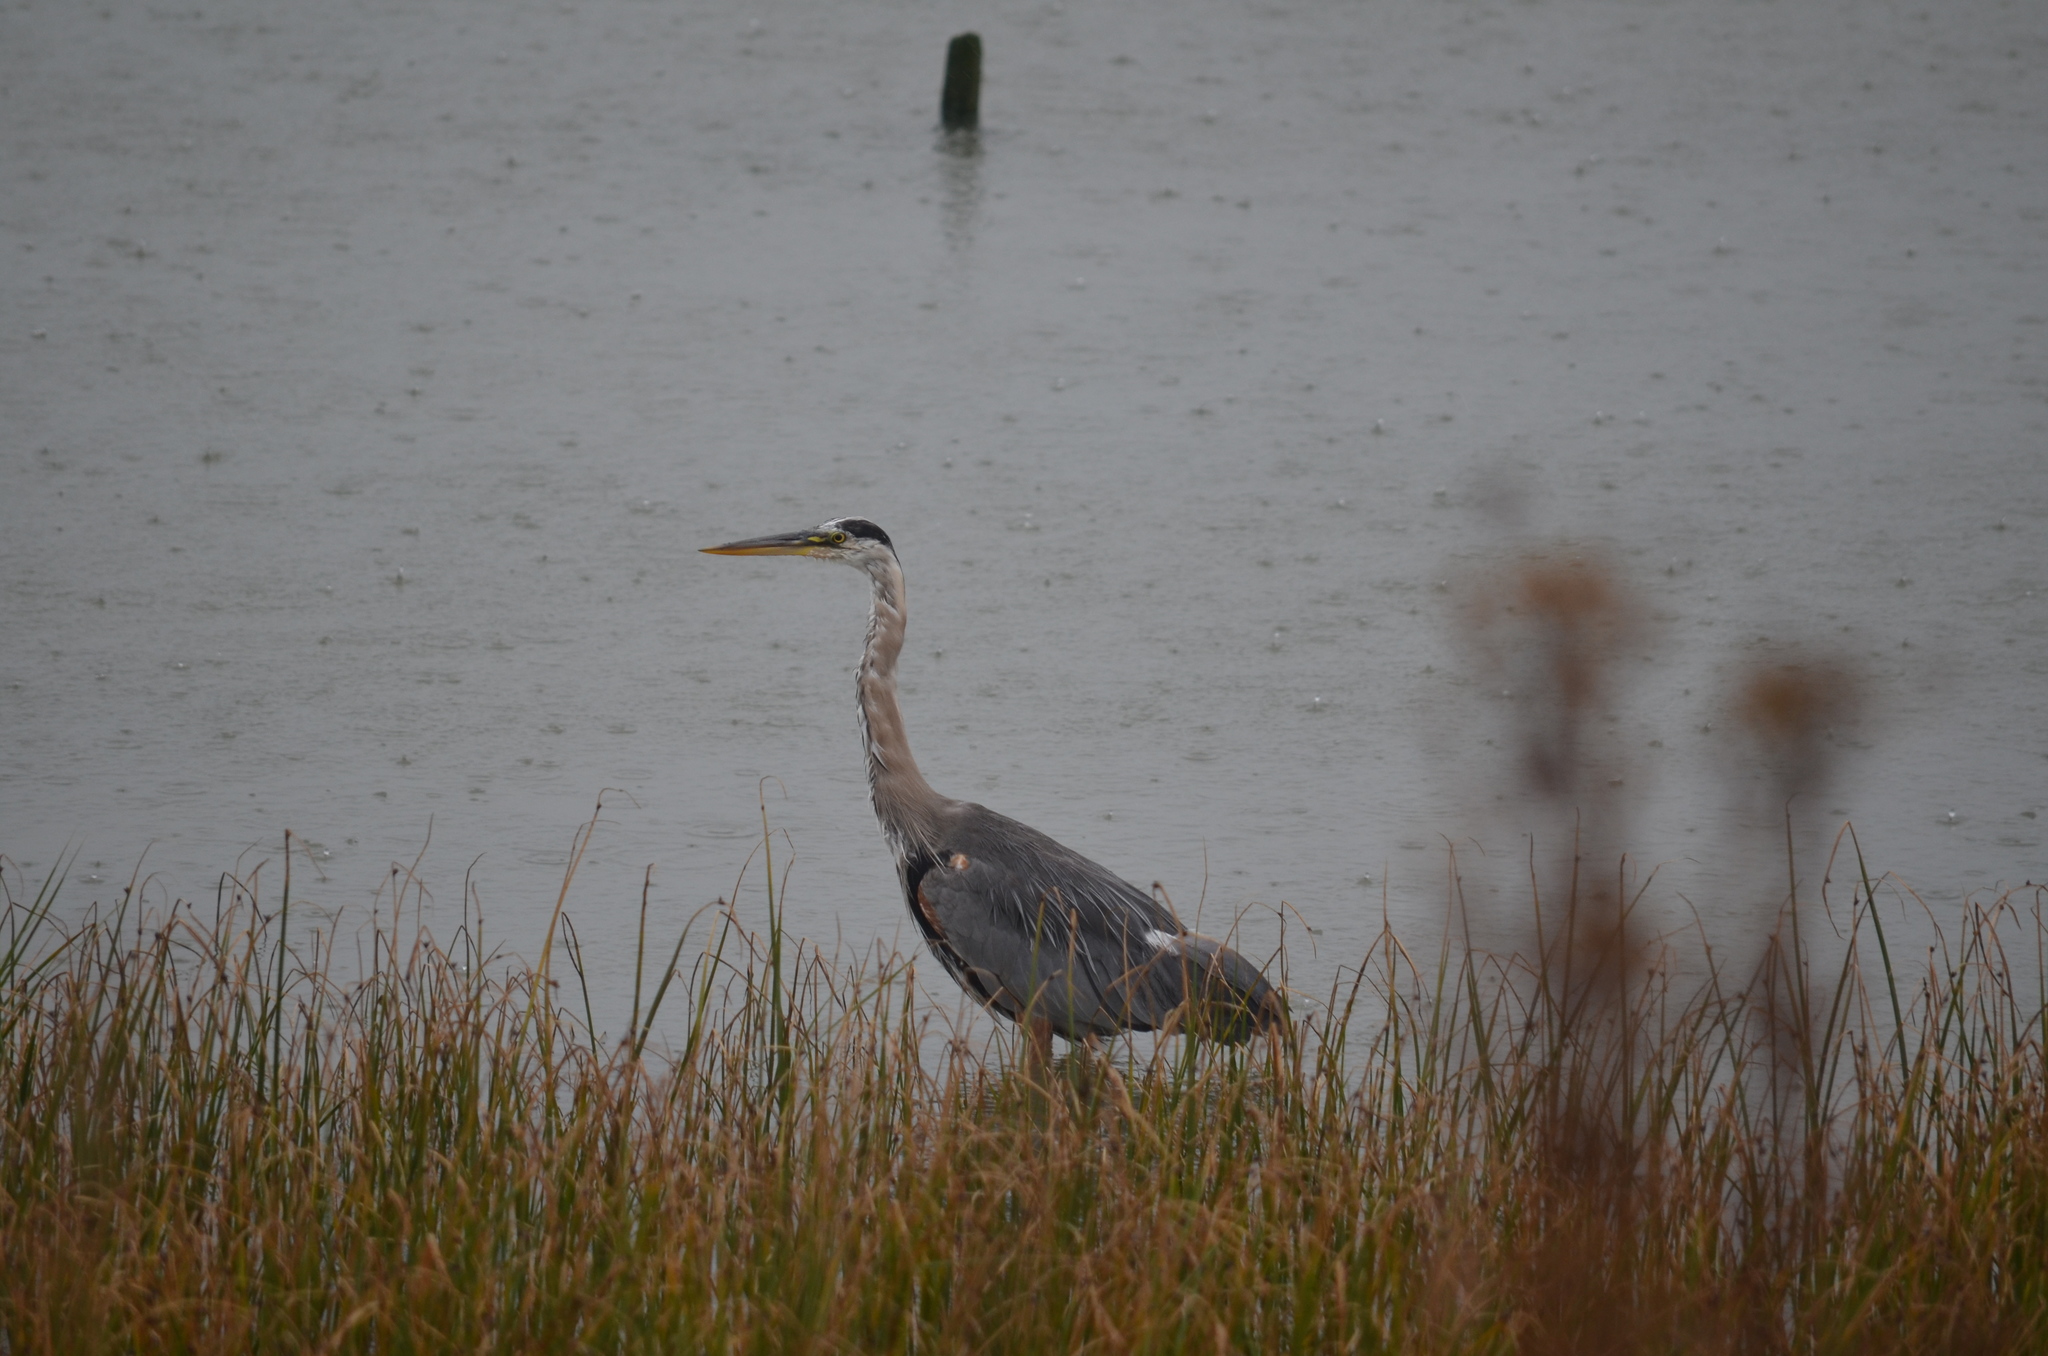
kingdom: Animalia
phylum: Chordata
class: Aves
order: Pelecaniformes
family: Ardeidae
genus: Ardea
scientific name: Ardea herodias
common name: Great blue heron
